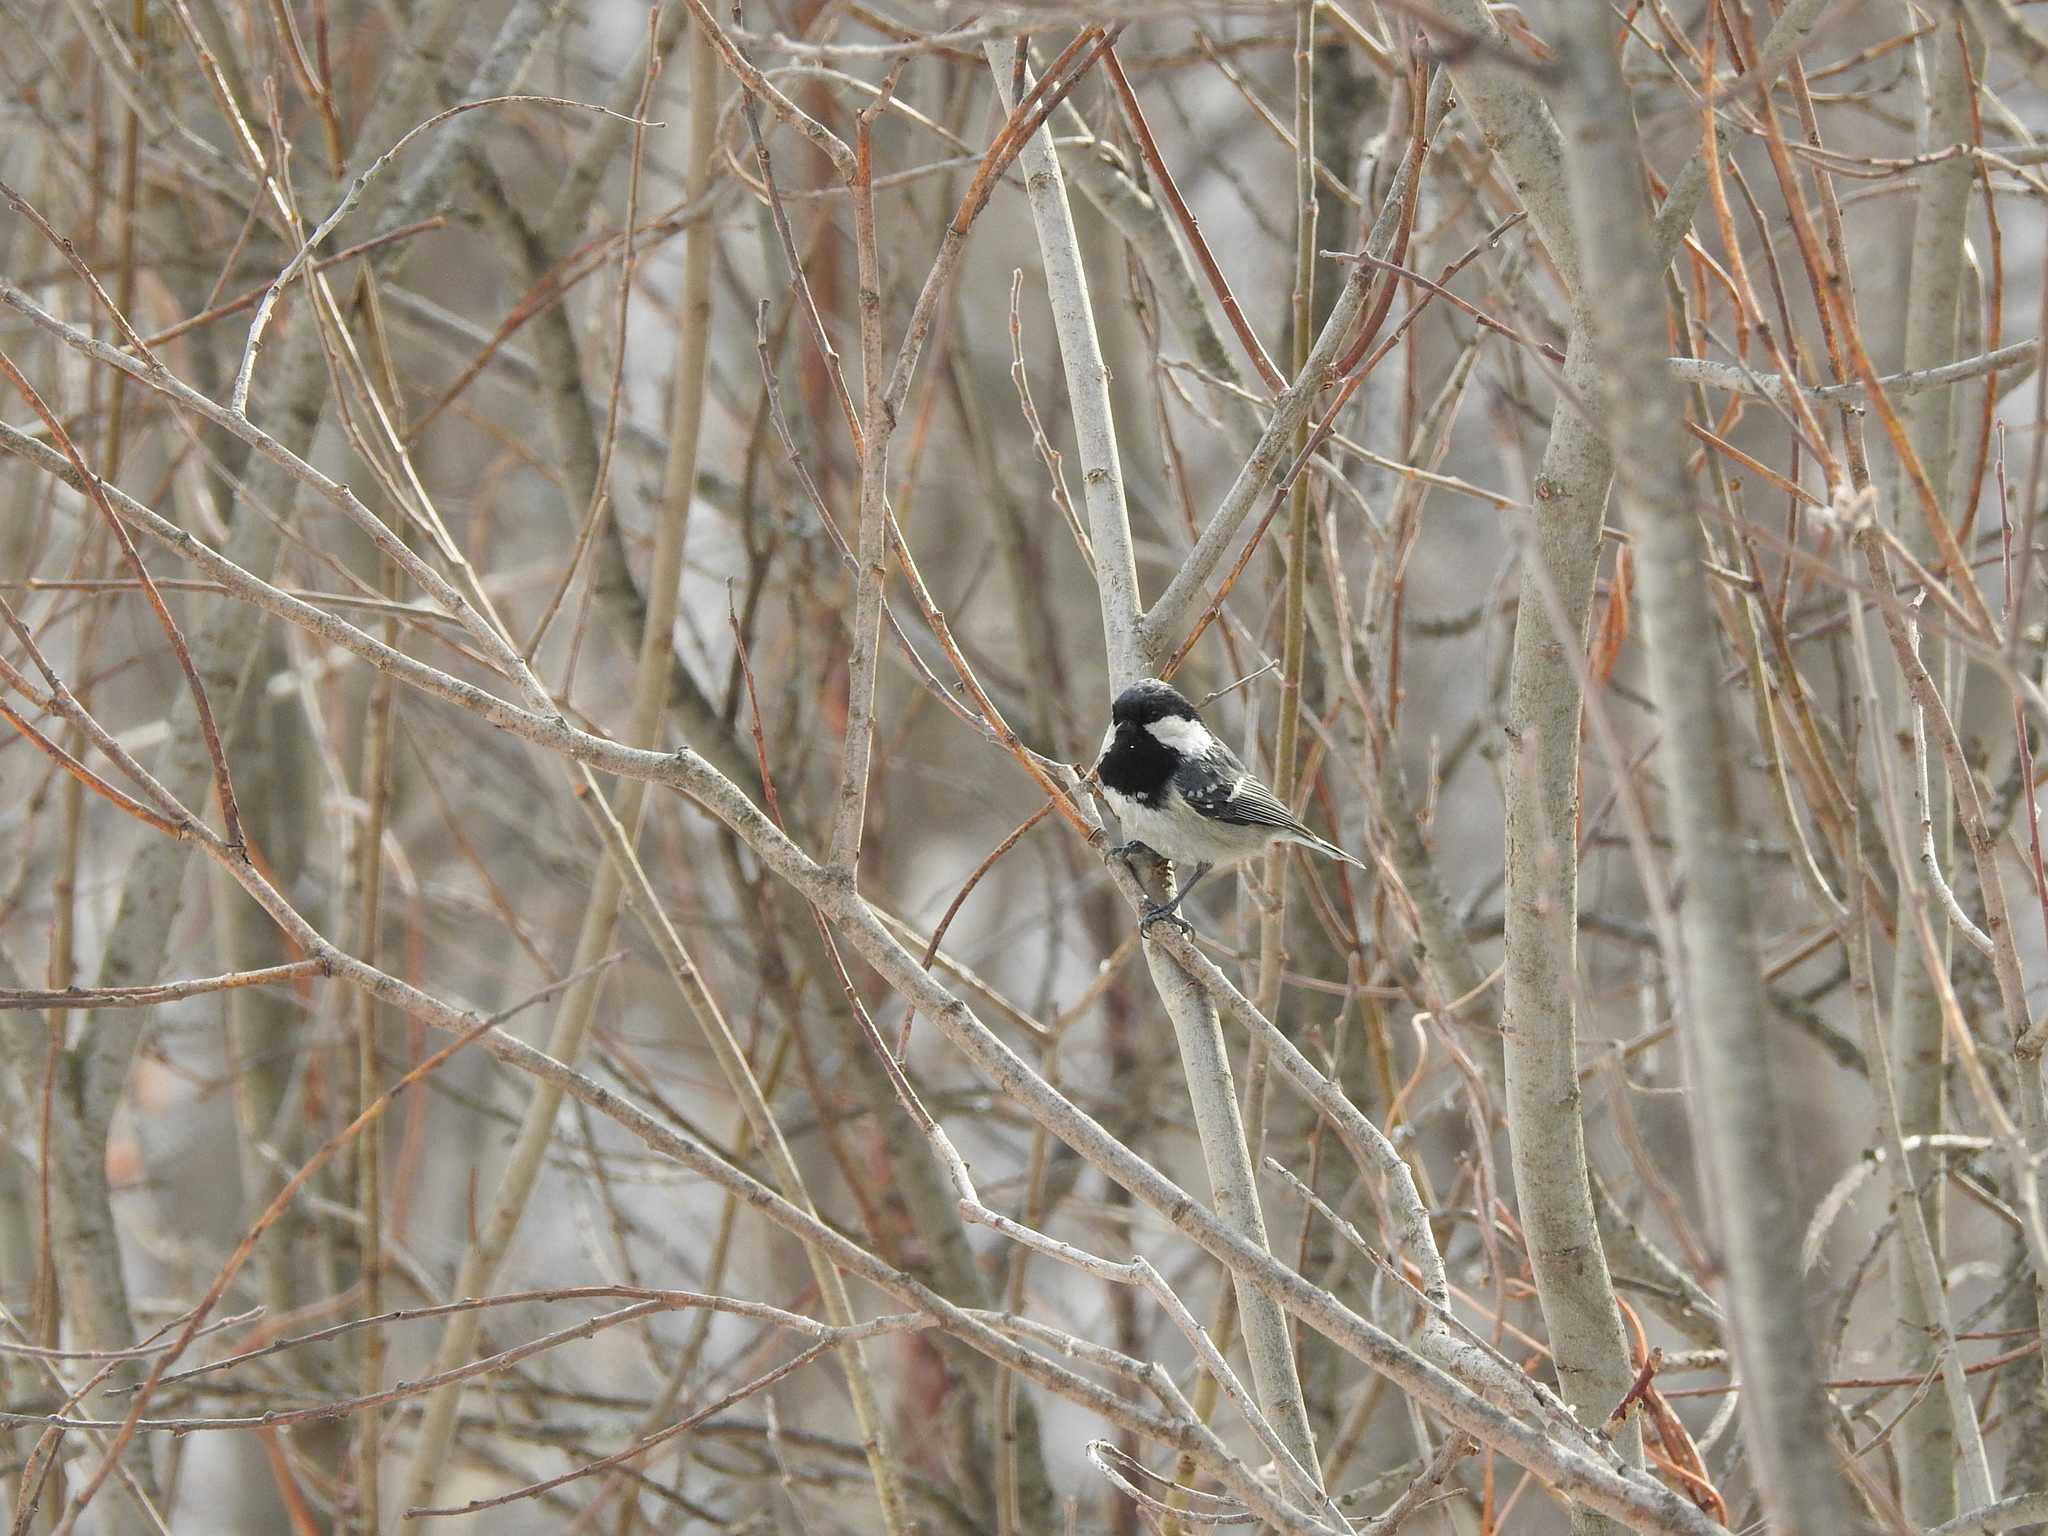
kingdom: Animalia
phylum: Chordata
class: Aves
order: Passeriformes
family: Paridae
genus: Periparus
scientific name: Periparus ater
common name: Coal tit
